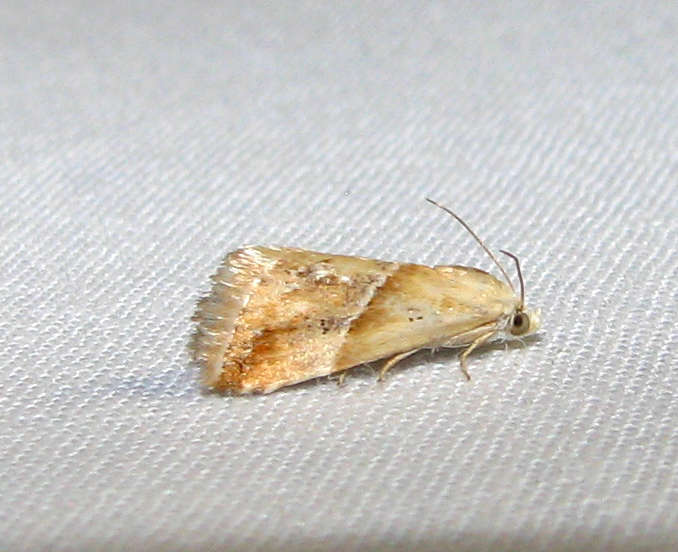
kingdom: Animalia
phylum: Arthropoda
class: Insecta
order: Lepidoptera
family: Noctuidae
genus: Eublemma
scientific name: Eublemma inconspicua
